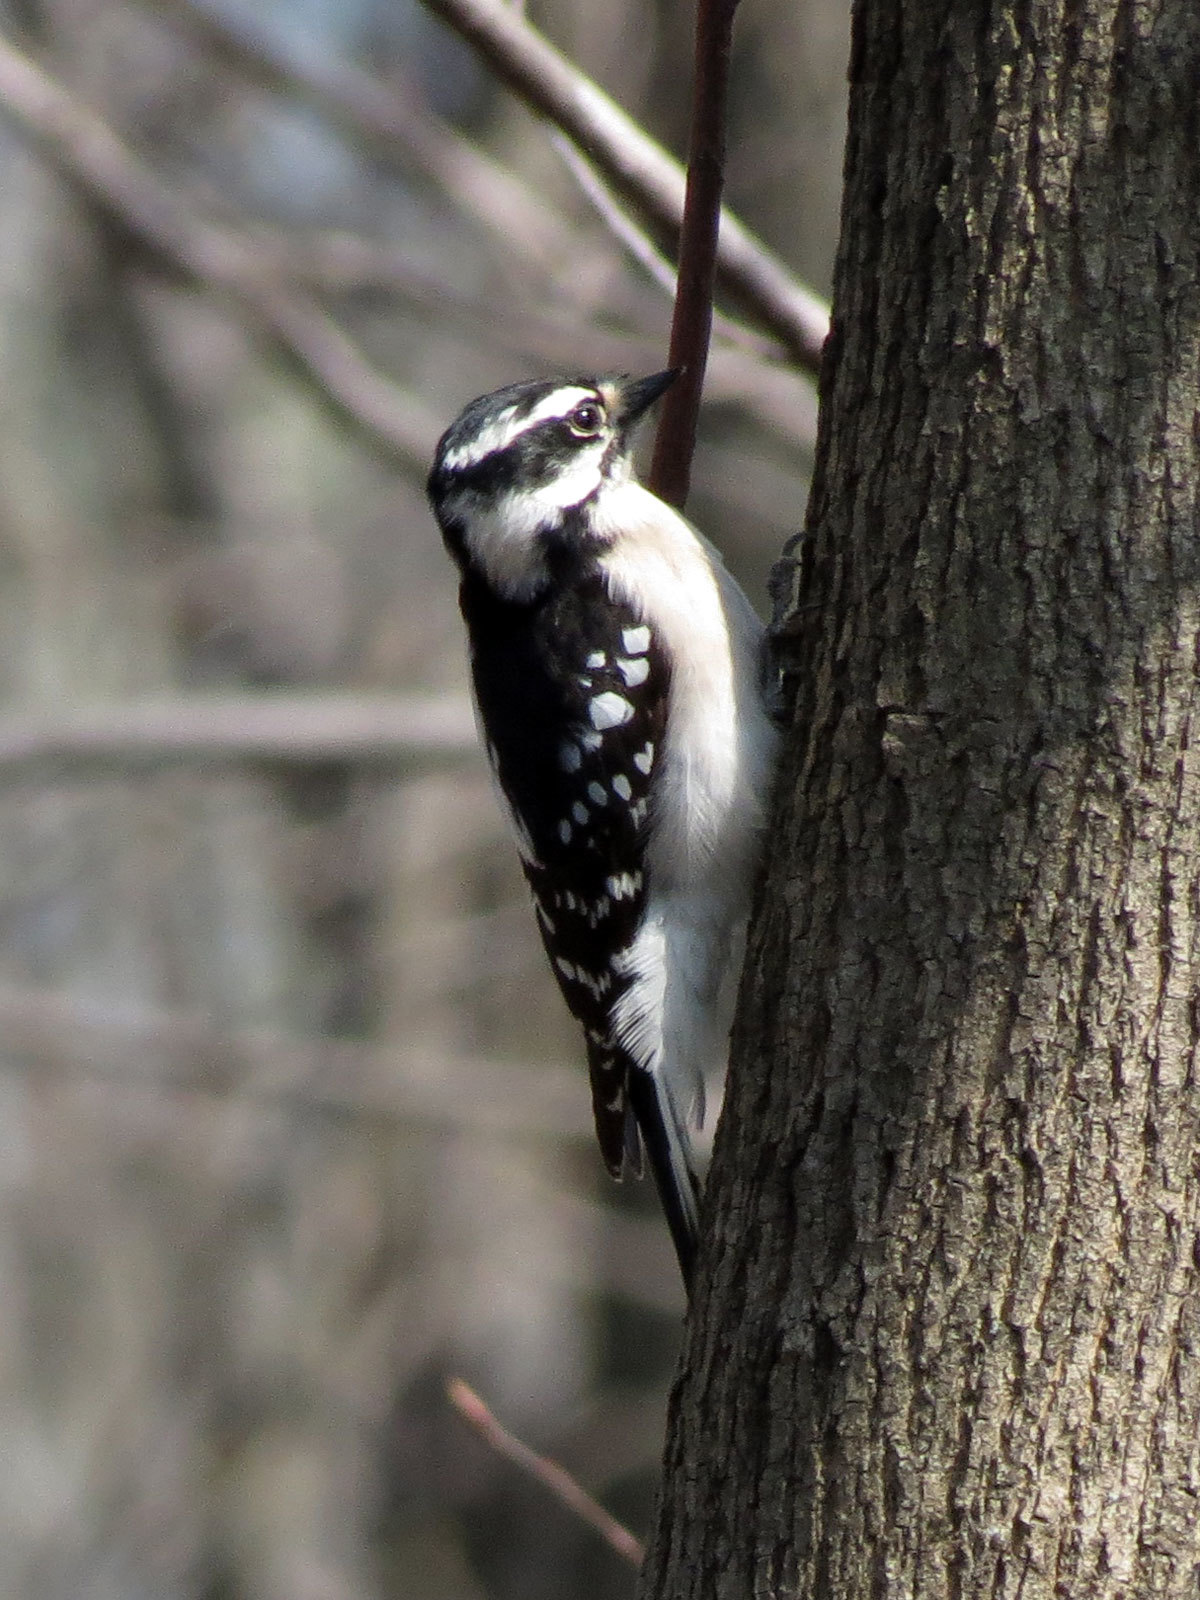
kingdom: Animalia
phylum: Chordata
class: Aves
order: Piciformes
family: Picidae
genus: Dryobates
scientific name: Dryobates pubescens
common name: Downy woodpecker
